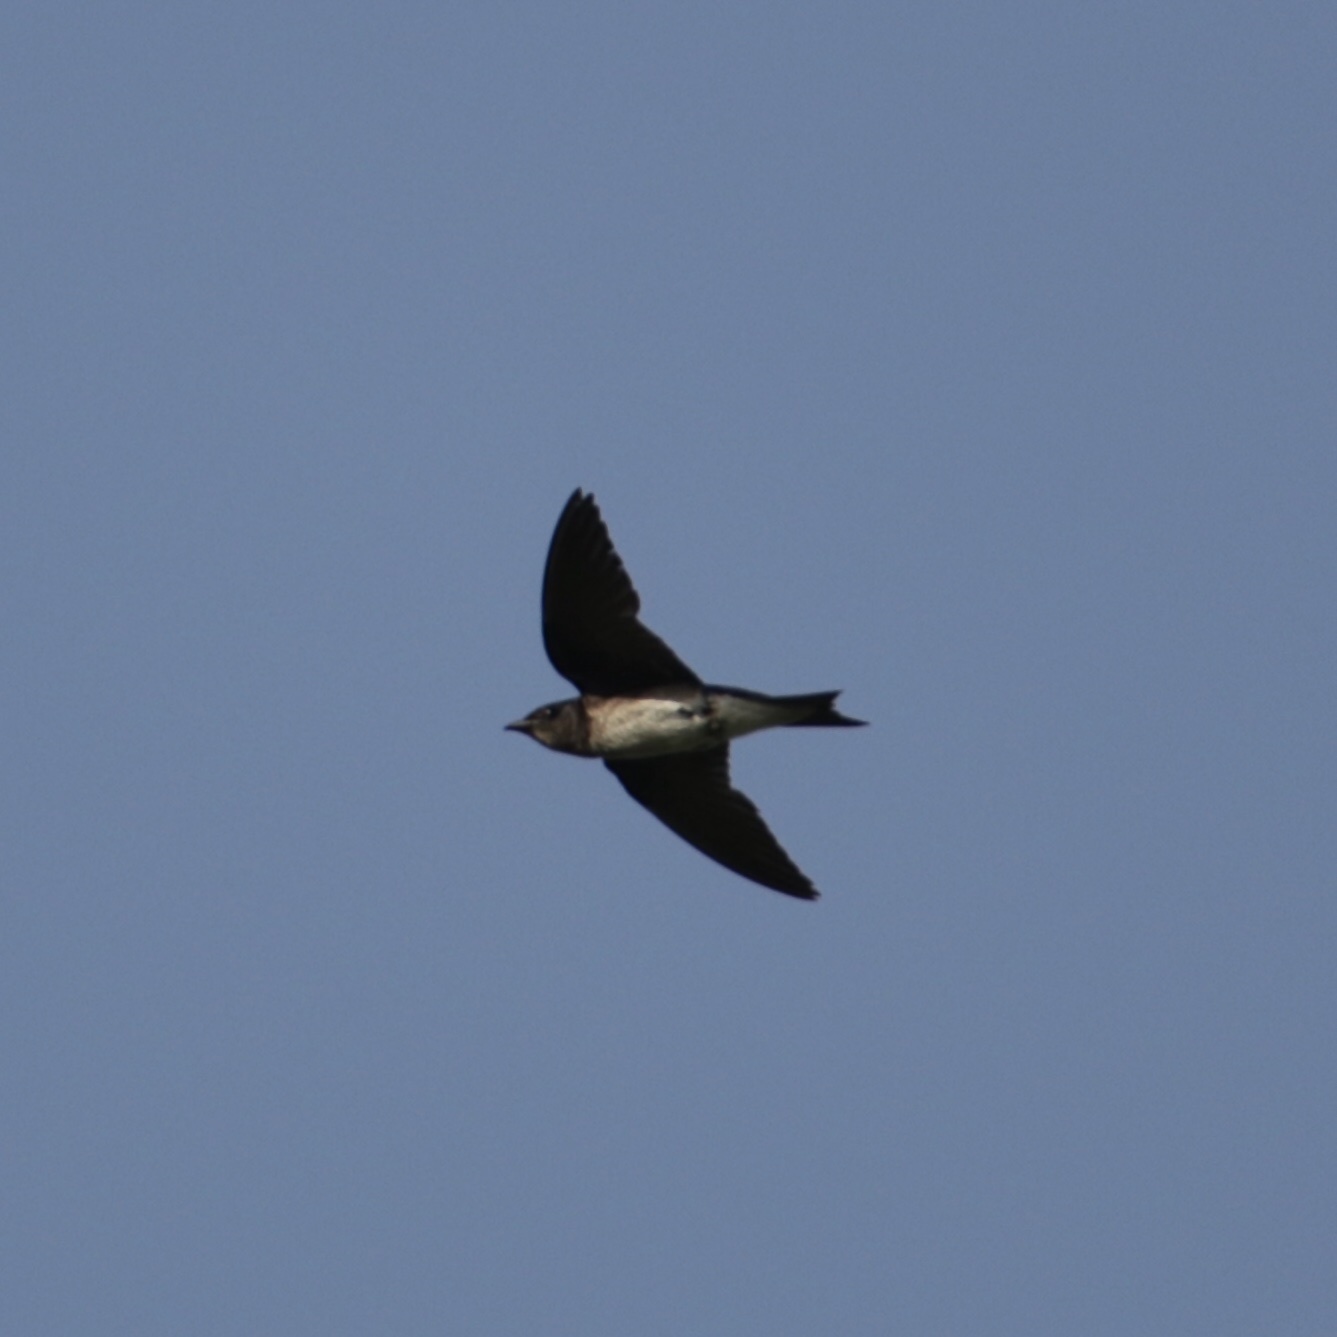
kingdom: Animalia
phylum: Chordata
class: Aves
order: Passeriformes
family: Hirundinidae
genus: Progne
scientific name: Progne chalybea
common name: Grey-breasted martin
